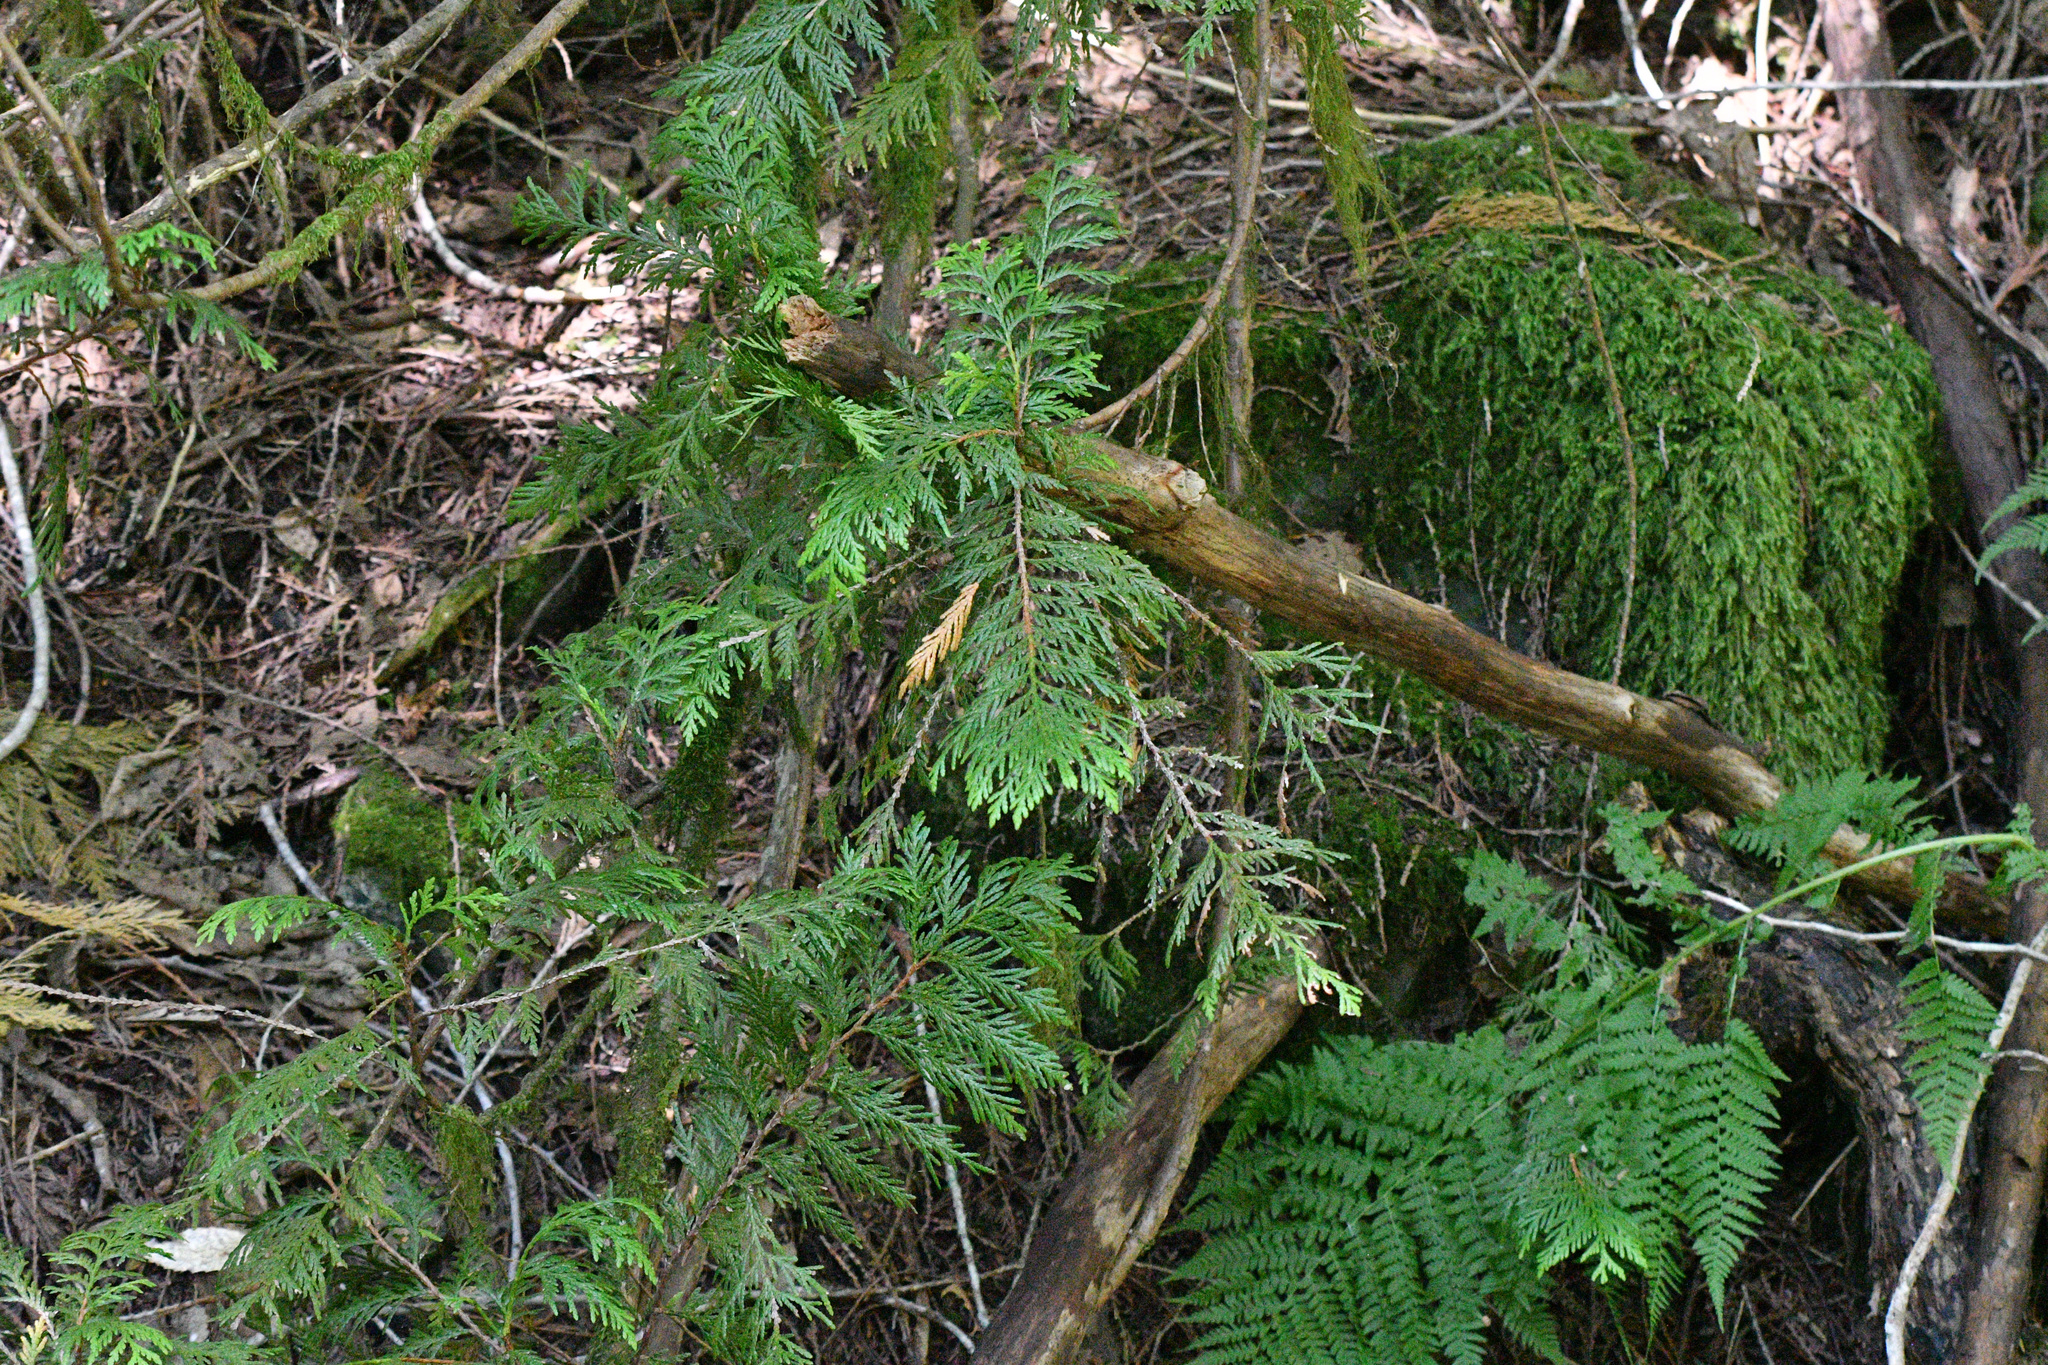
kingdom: Plantae
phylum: Tracheophyta
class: Pinopsida
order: Pinales
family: Cupressaceae
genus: Thuja
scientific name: Thuja plicata
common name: Western red-cedar
